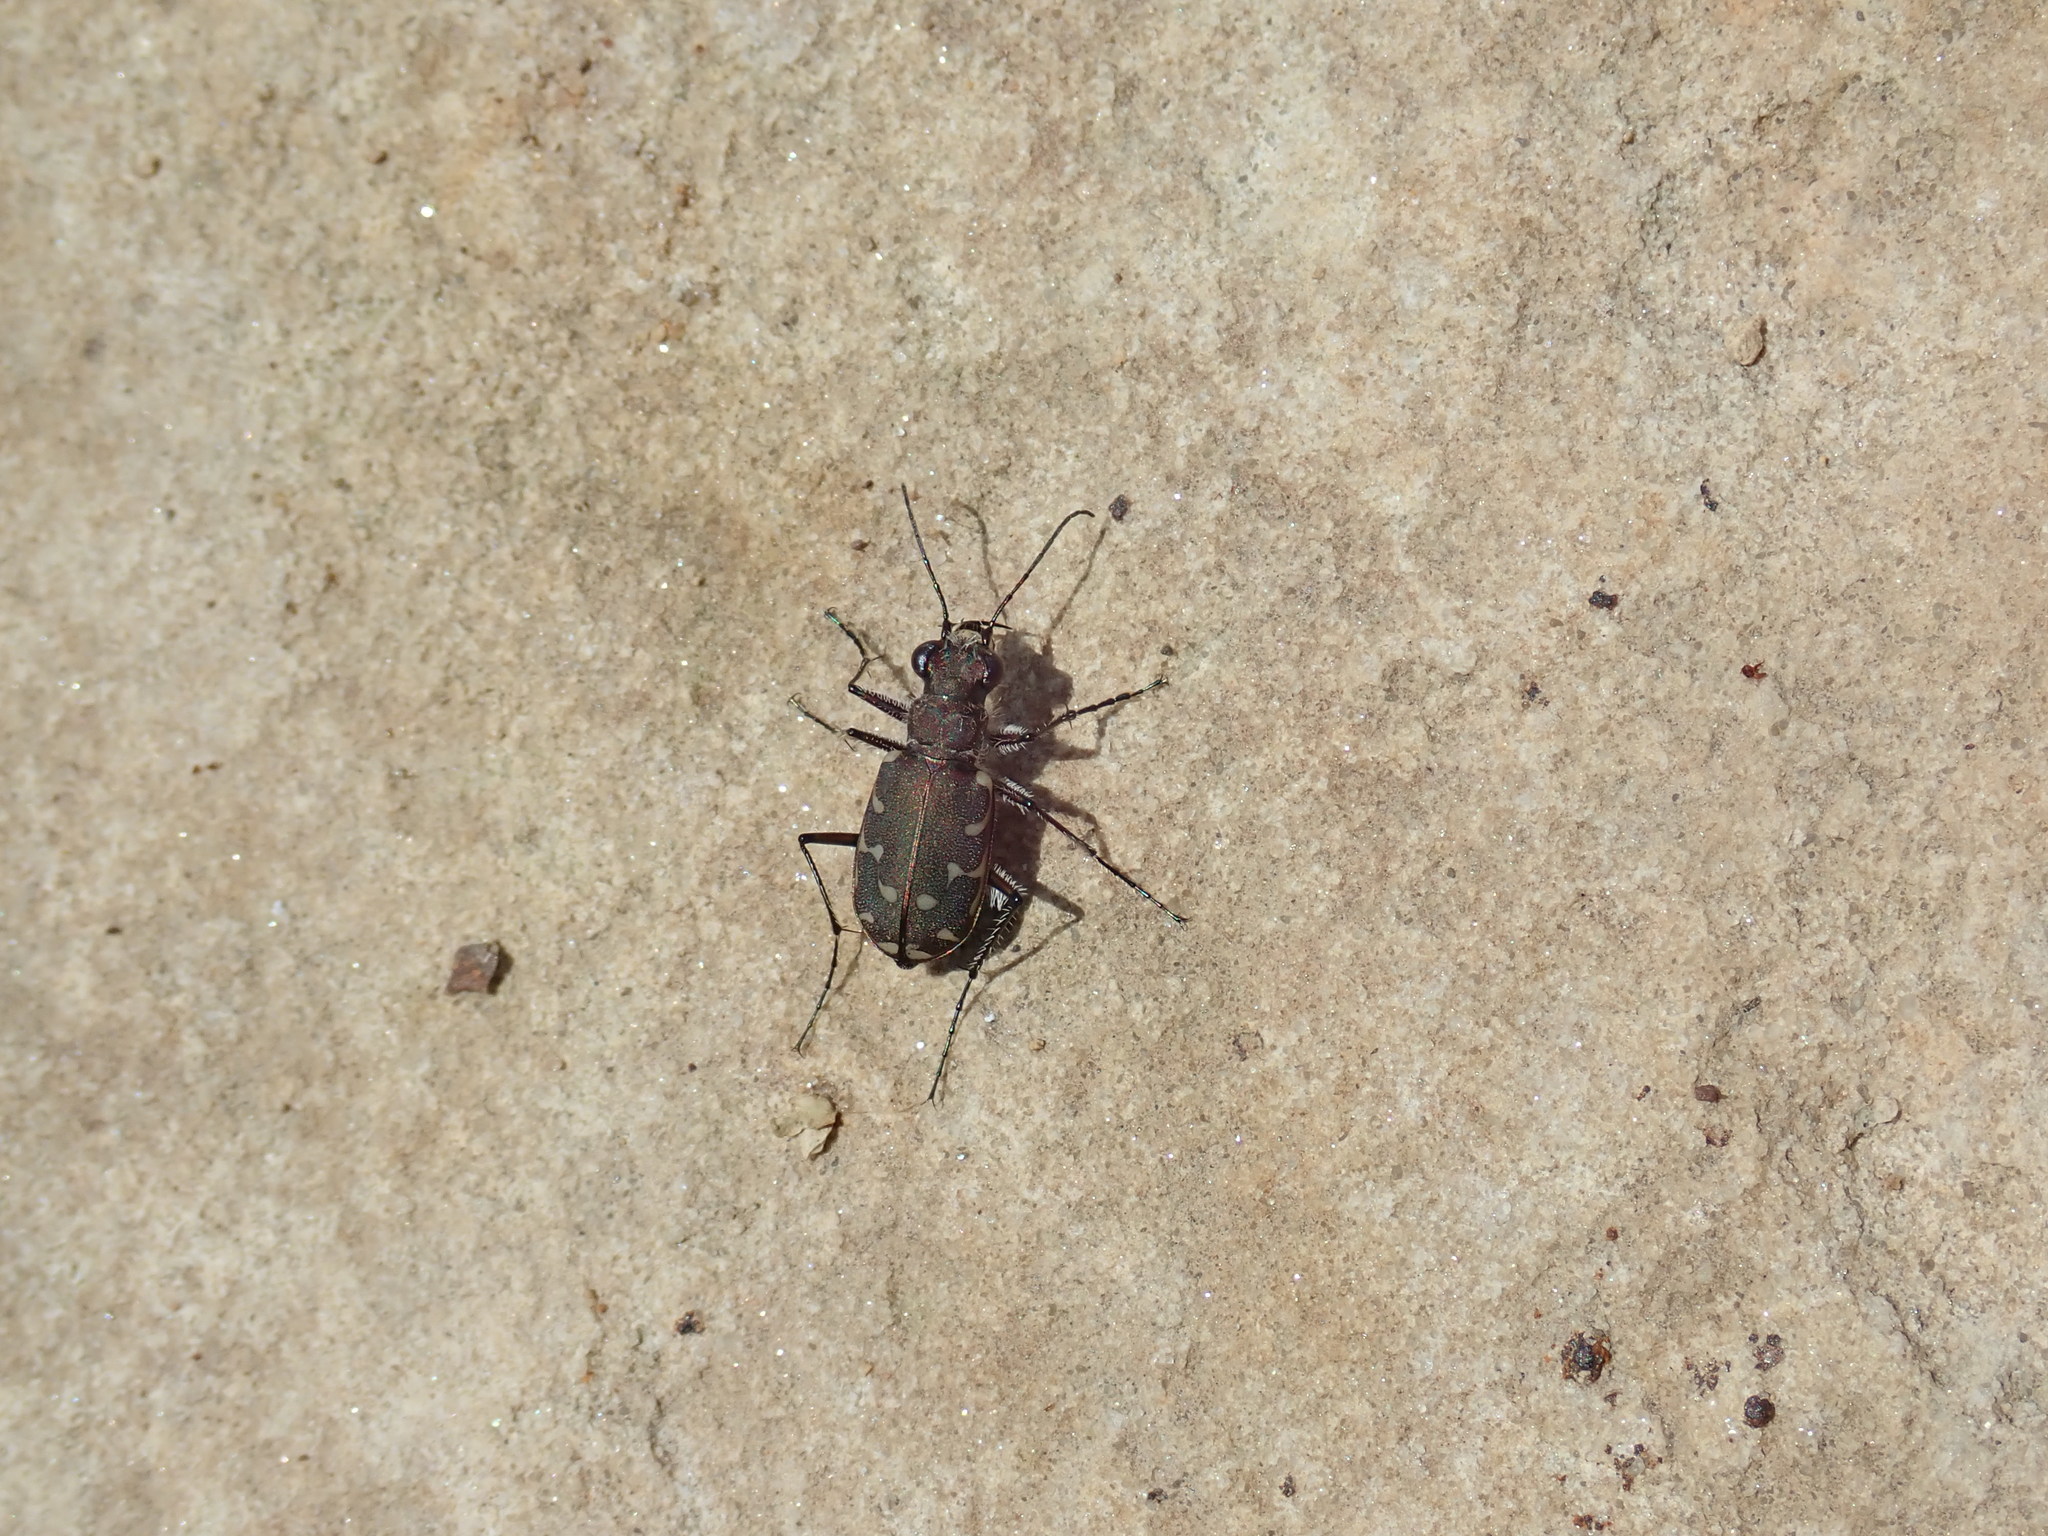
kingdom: Animalia
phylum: Arthropoda
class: Insecta
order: Coleoptera
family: Carabidae
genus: Cicindela
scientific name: Cicindela duodecimguttata
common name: Twelve-spotted tiger beetle
